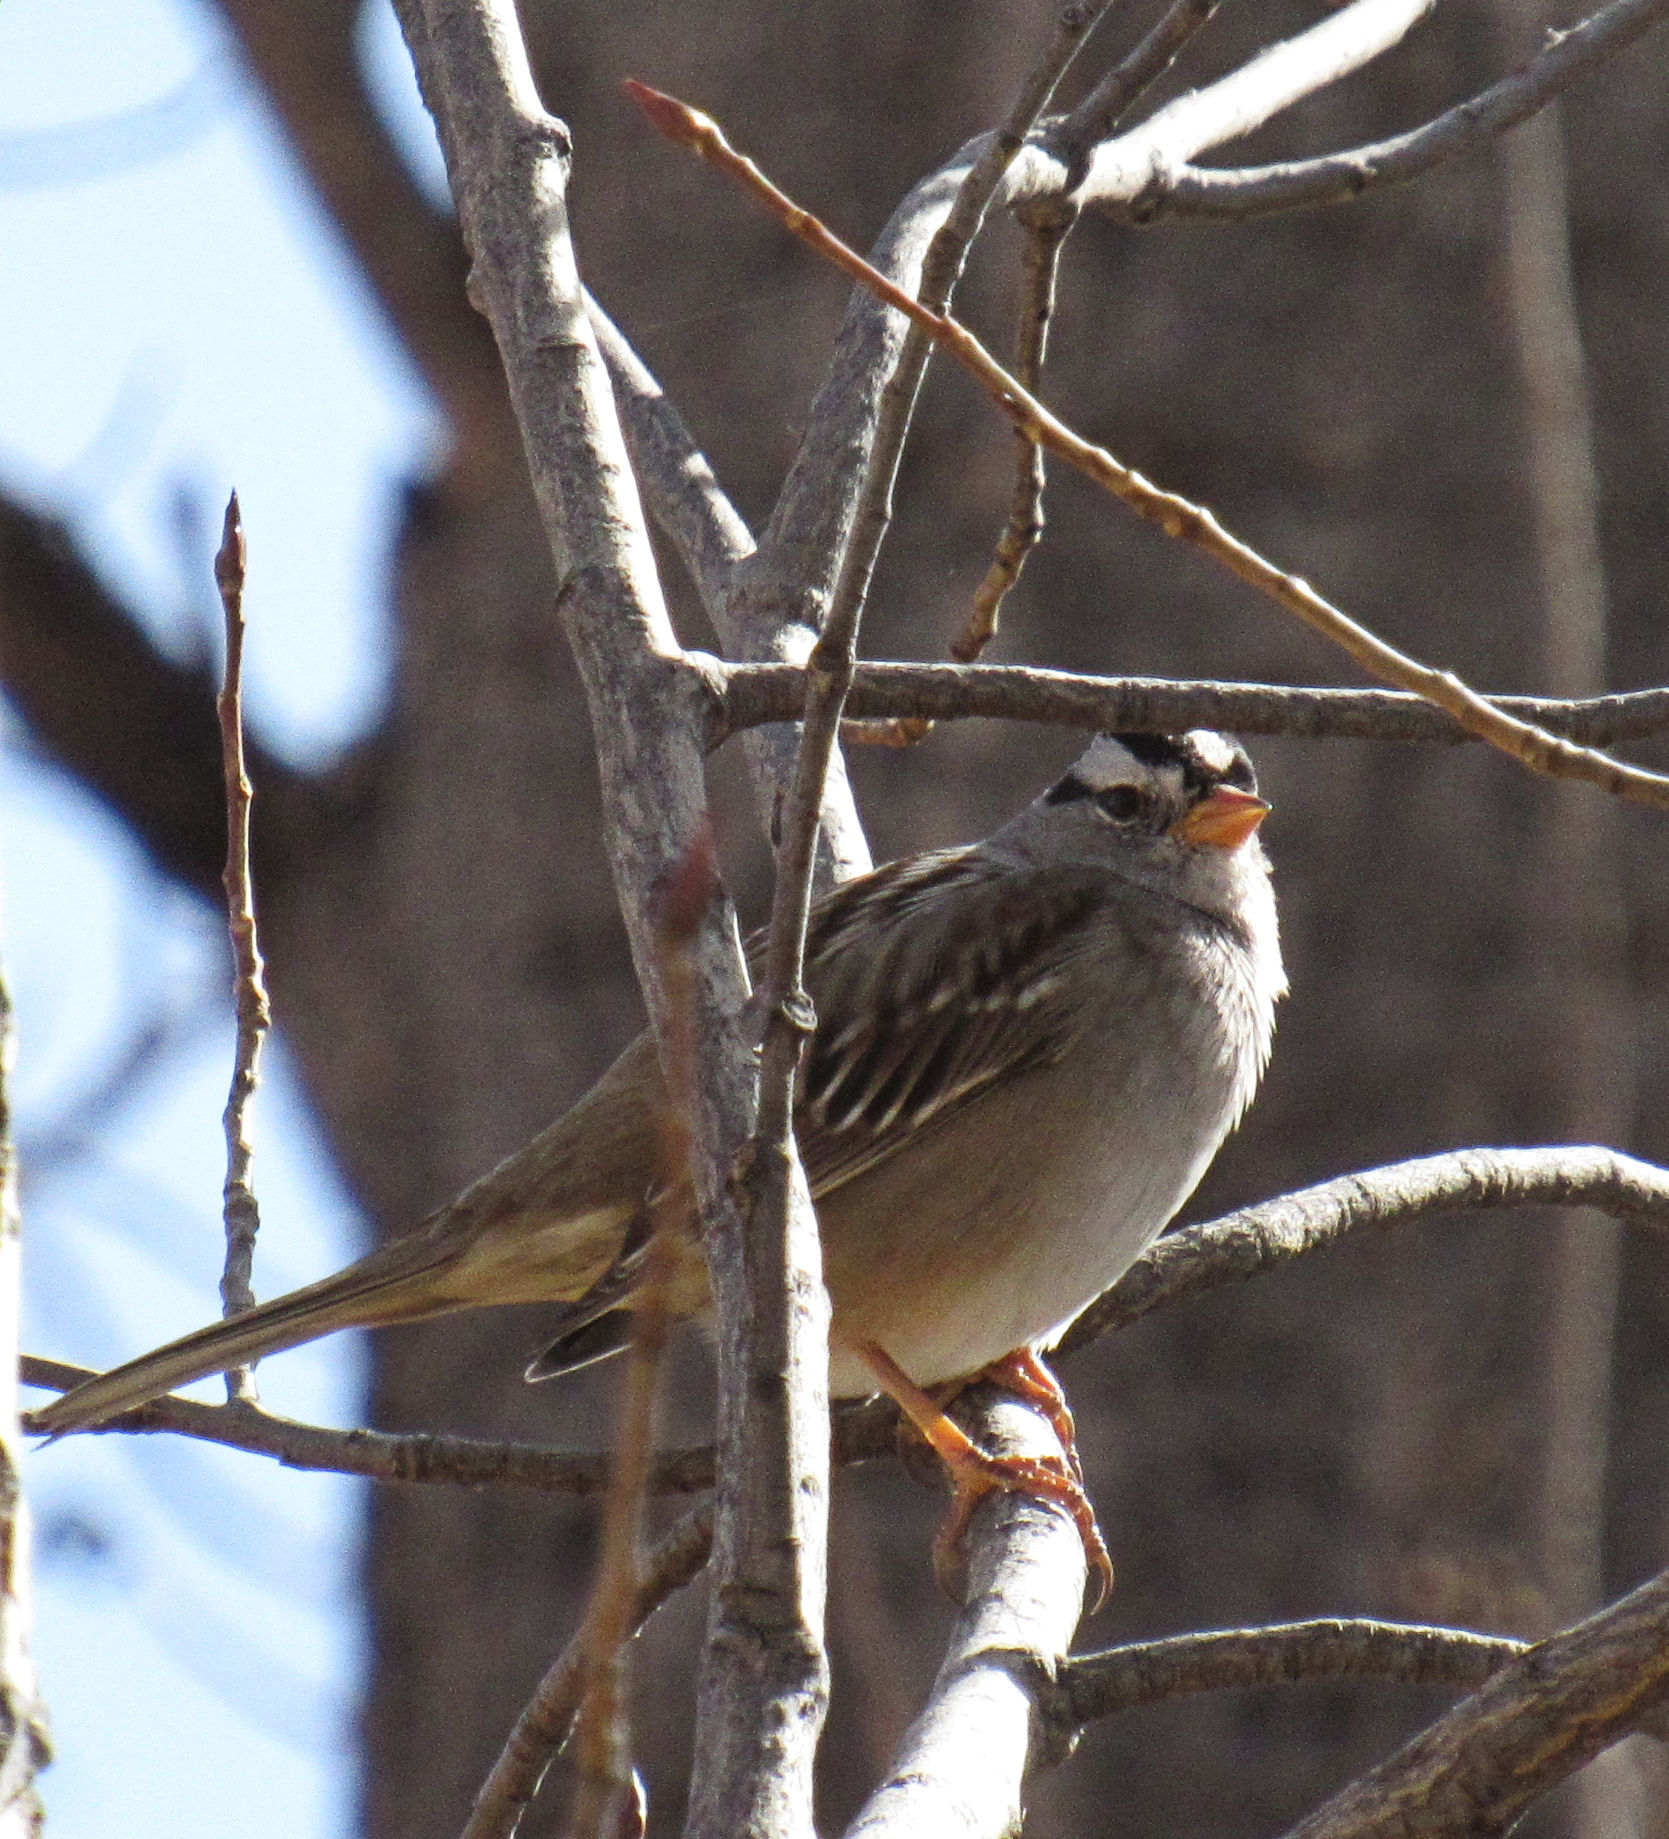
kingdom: Animalia
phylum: Chordata
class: Aves
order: Passeriformes
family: Passerellidae
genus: Zonotrichia
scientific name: Zonotrichia leucophrys
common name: White-crowned sparrow
